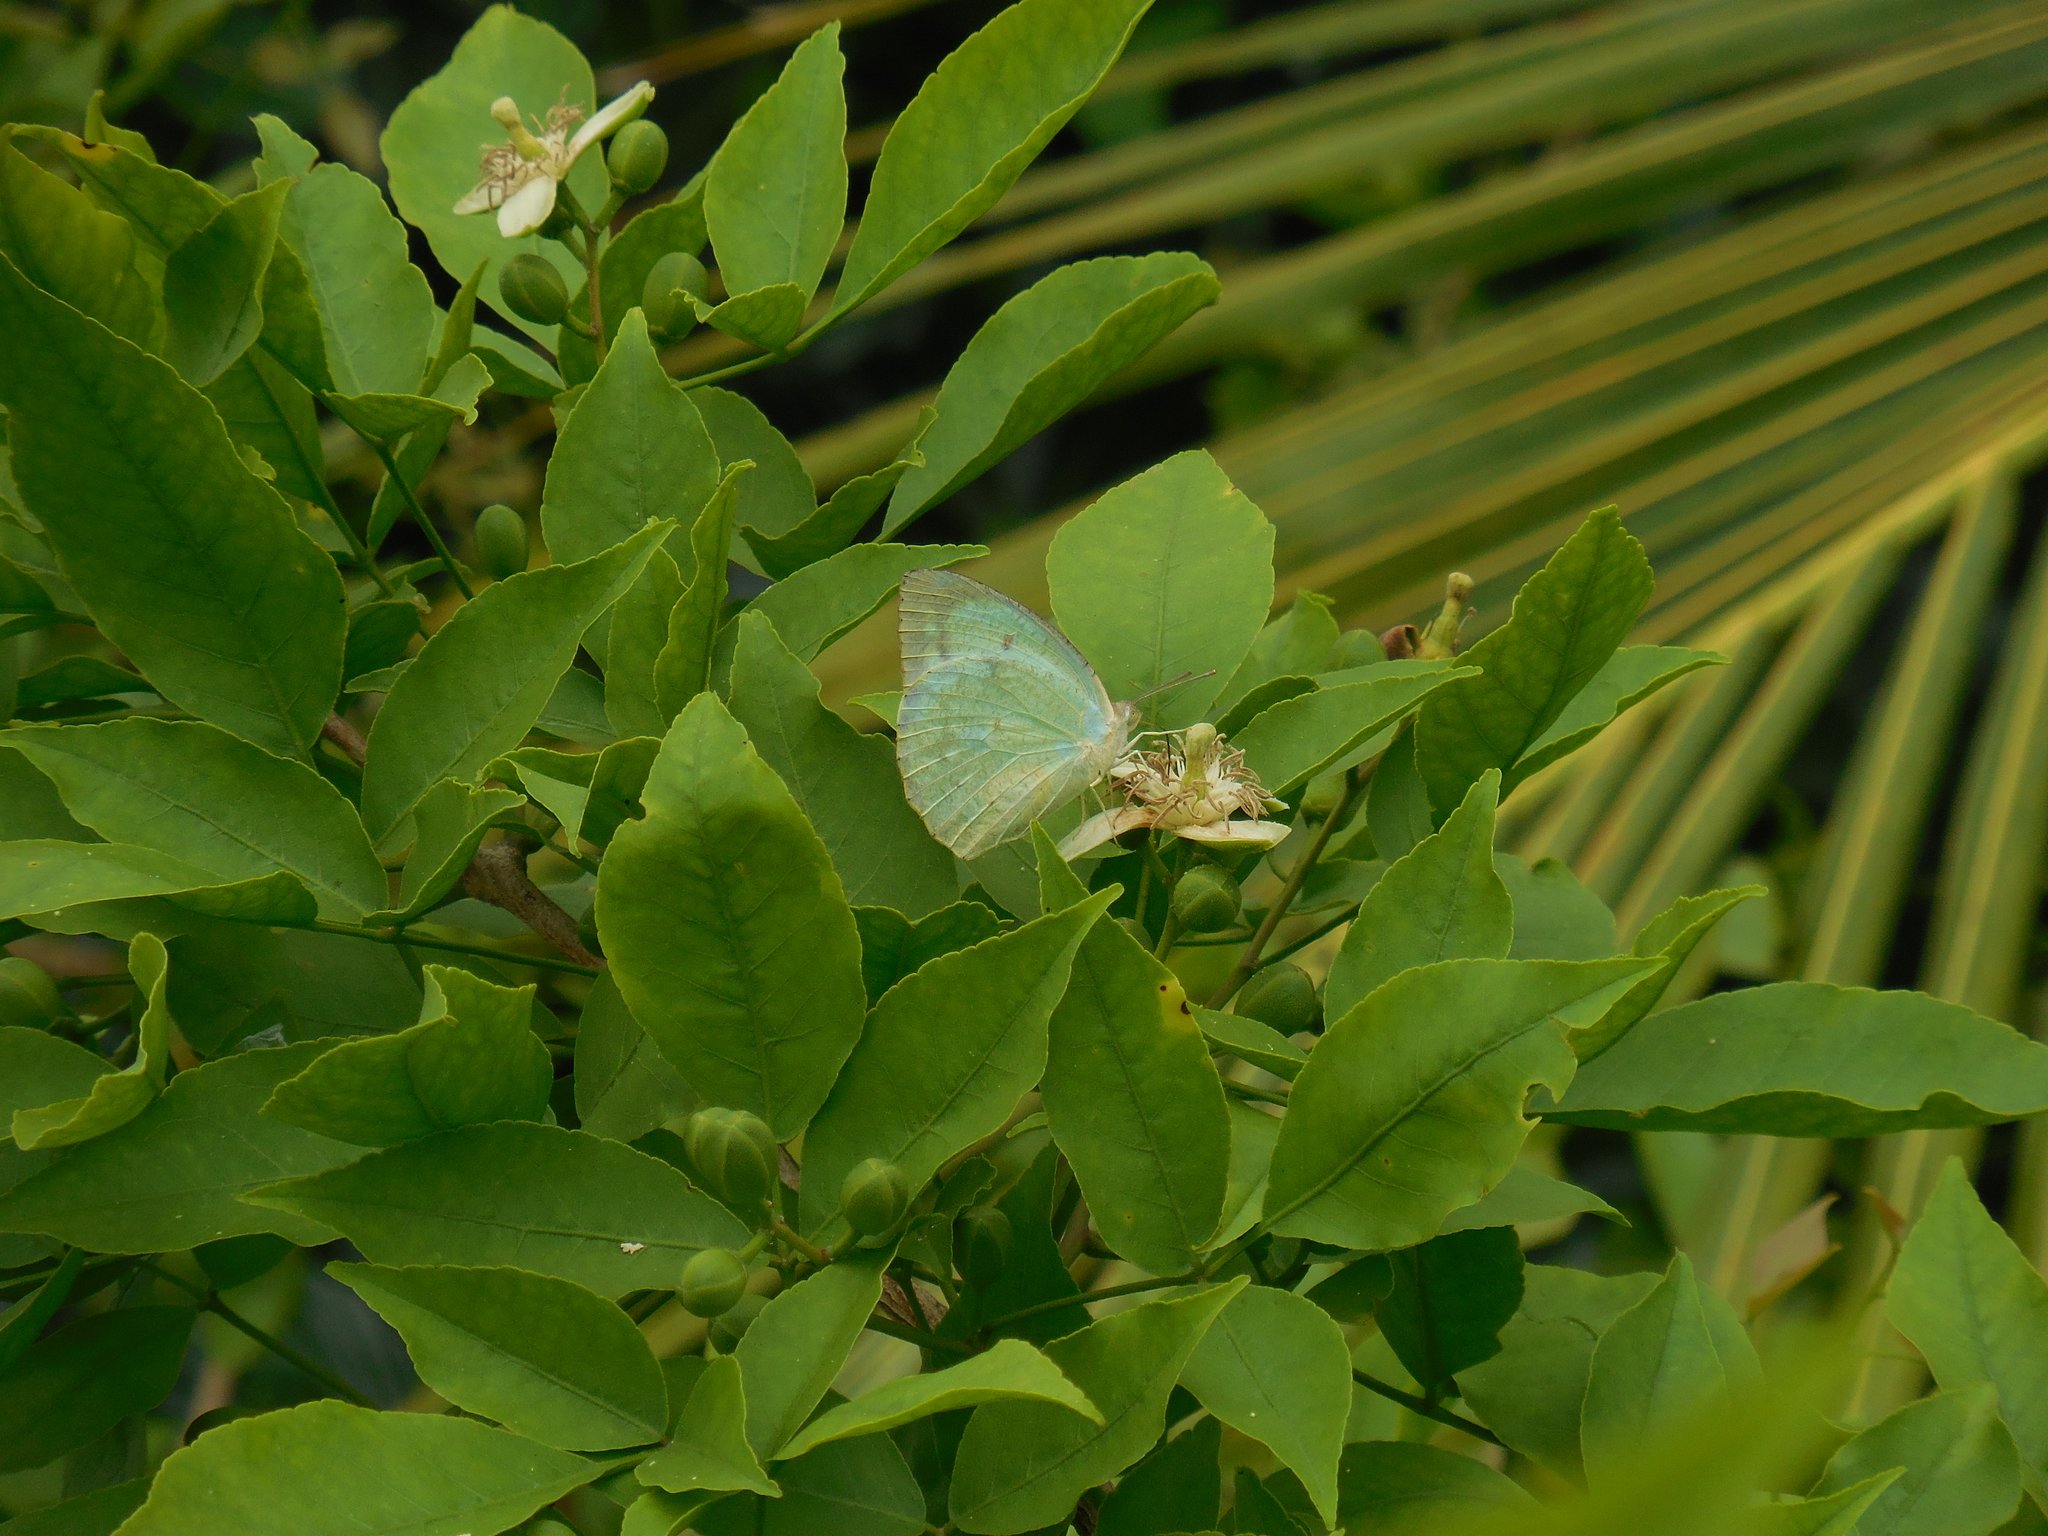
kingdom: Animalia
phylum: Arthropoda
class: Insecta
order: Lepidoptera
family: Pieridae
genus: Catopsilia
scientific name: Catopsilia pyranthe
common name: Mottled emigrant
